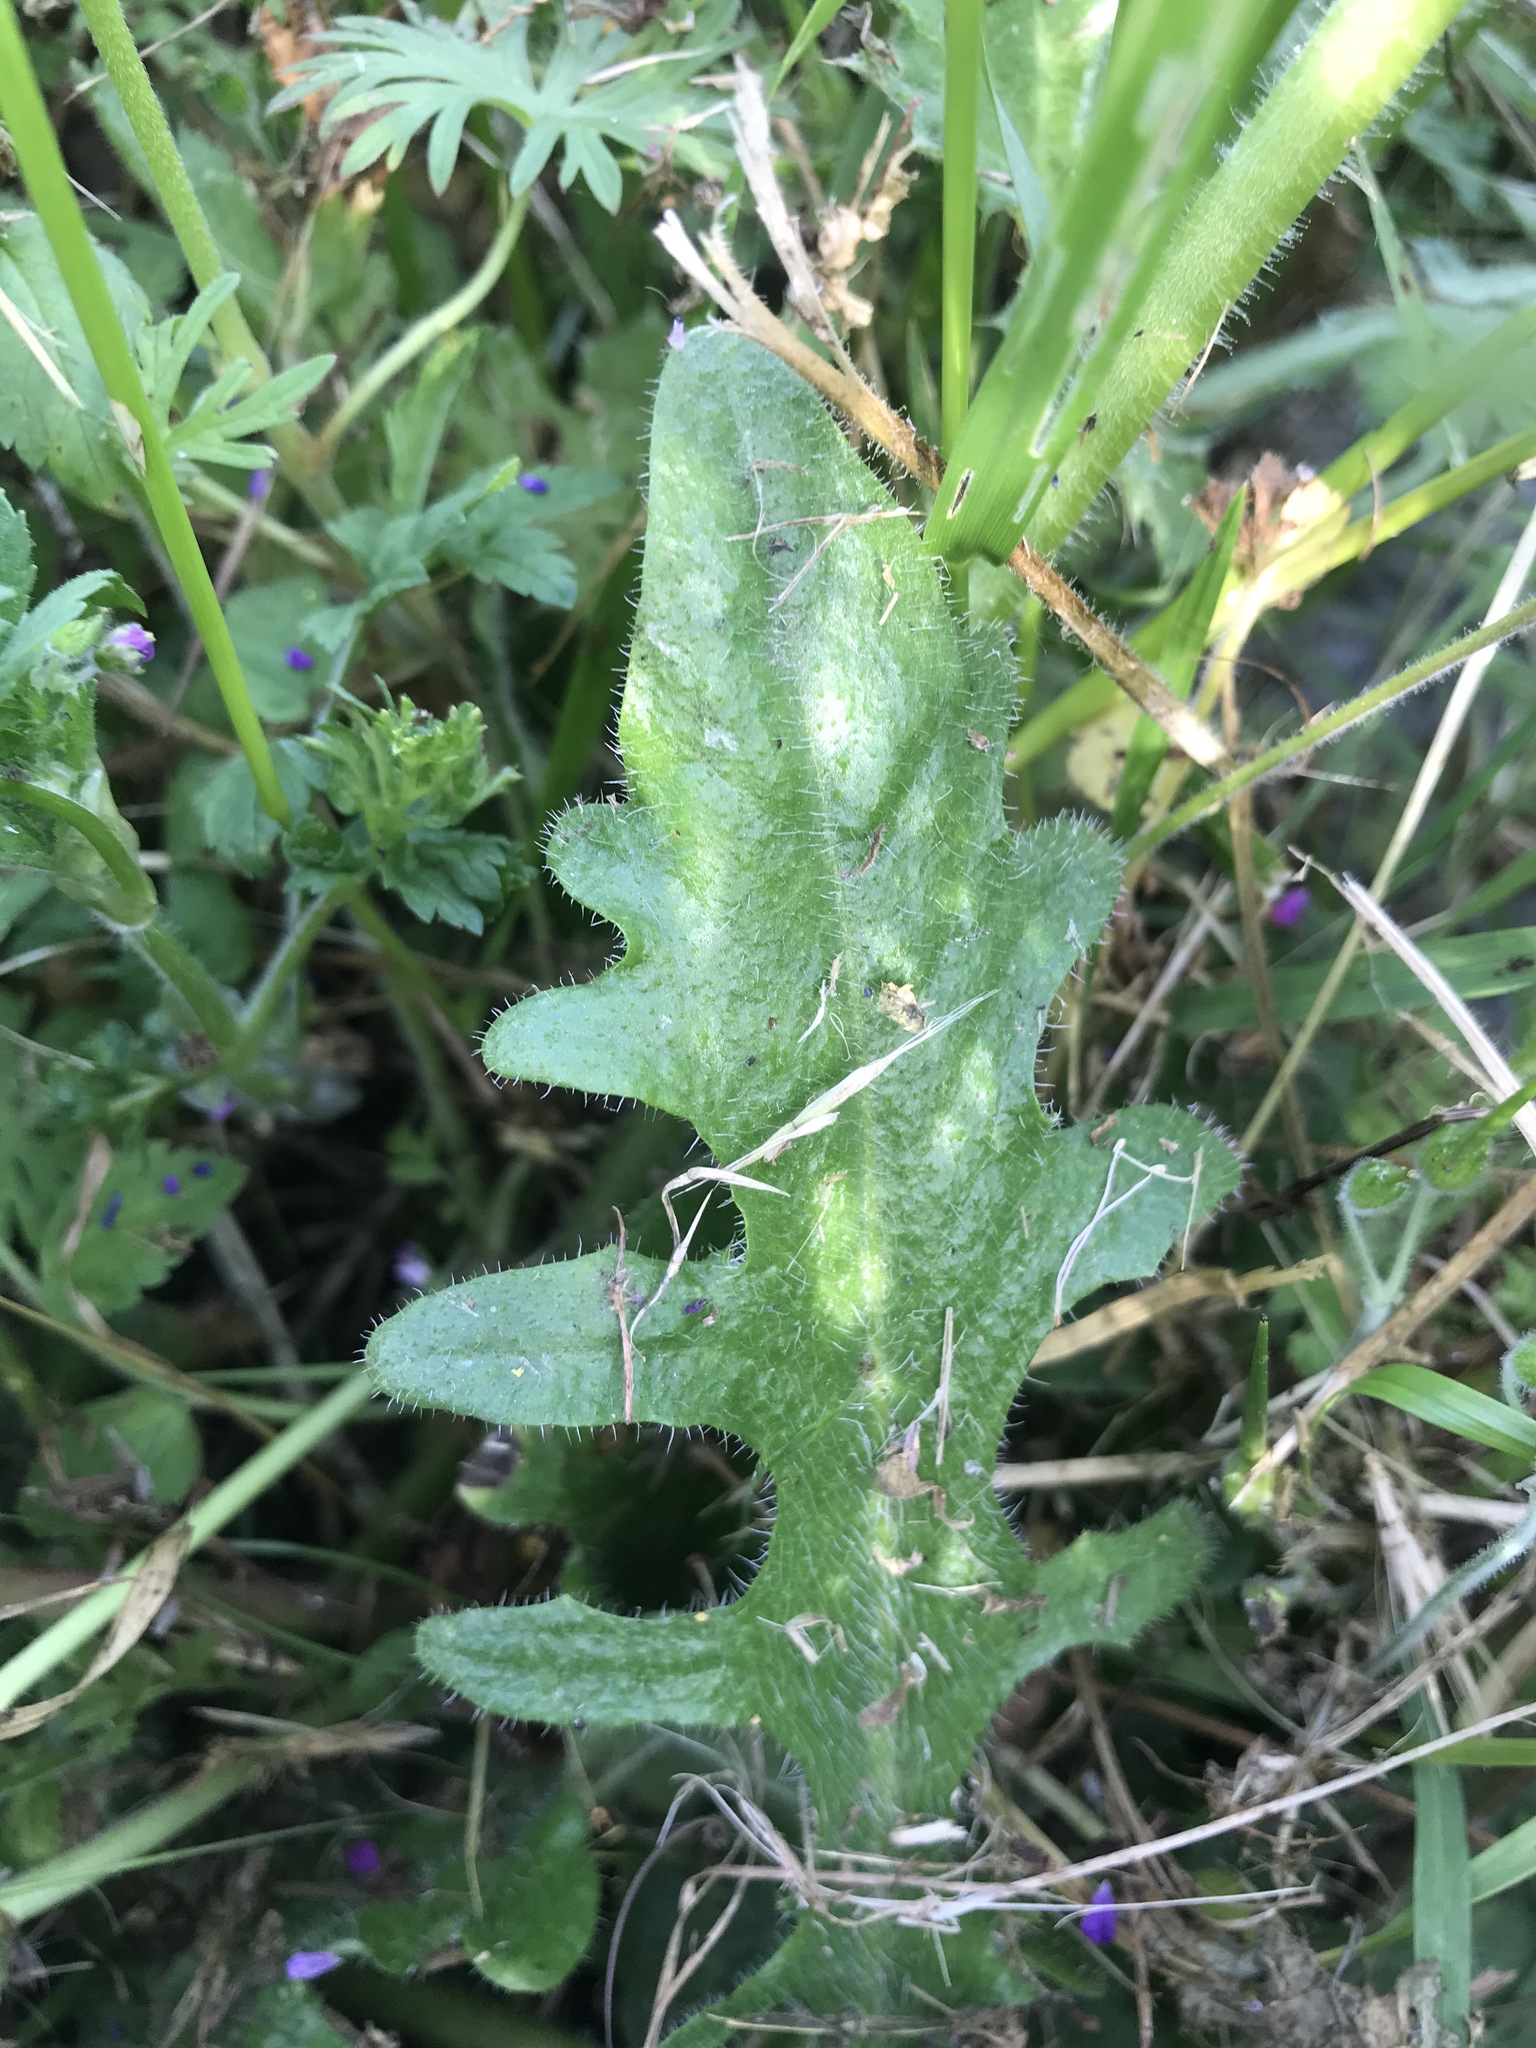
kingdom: Plantae
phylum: Tracheophyta
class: Magnoliopsida
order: Asterales
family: Asteraceae
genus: Hypochaeris
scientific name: Hypochaeris radicata
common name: Flatweed
